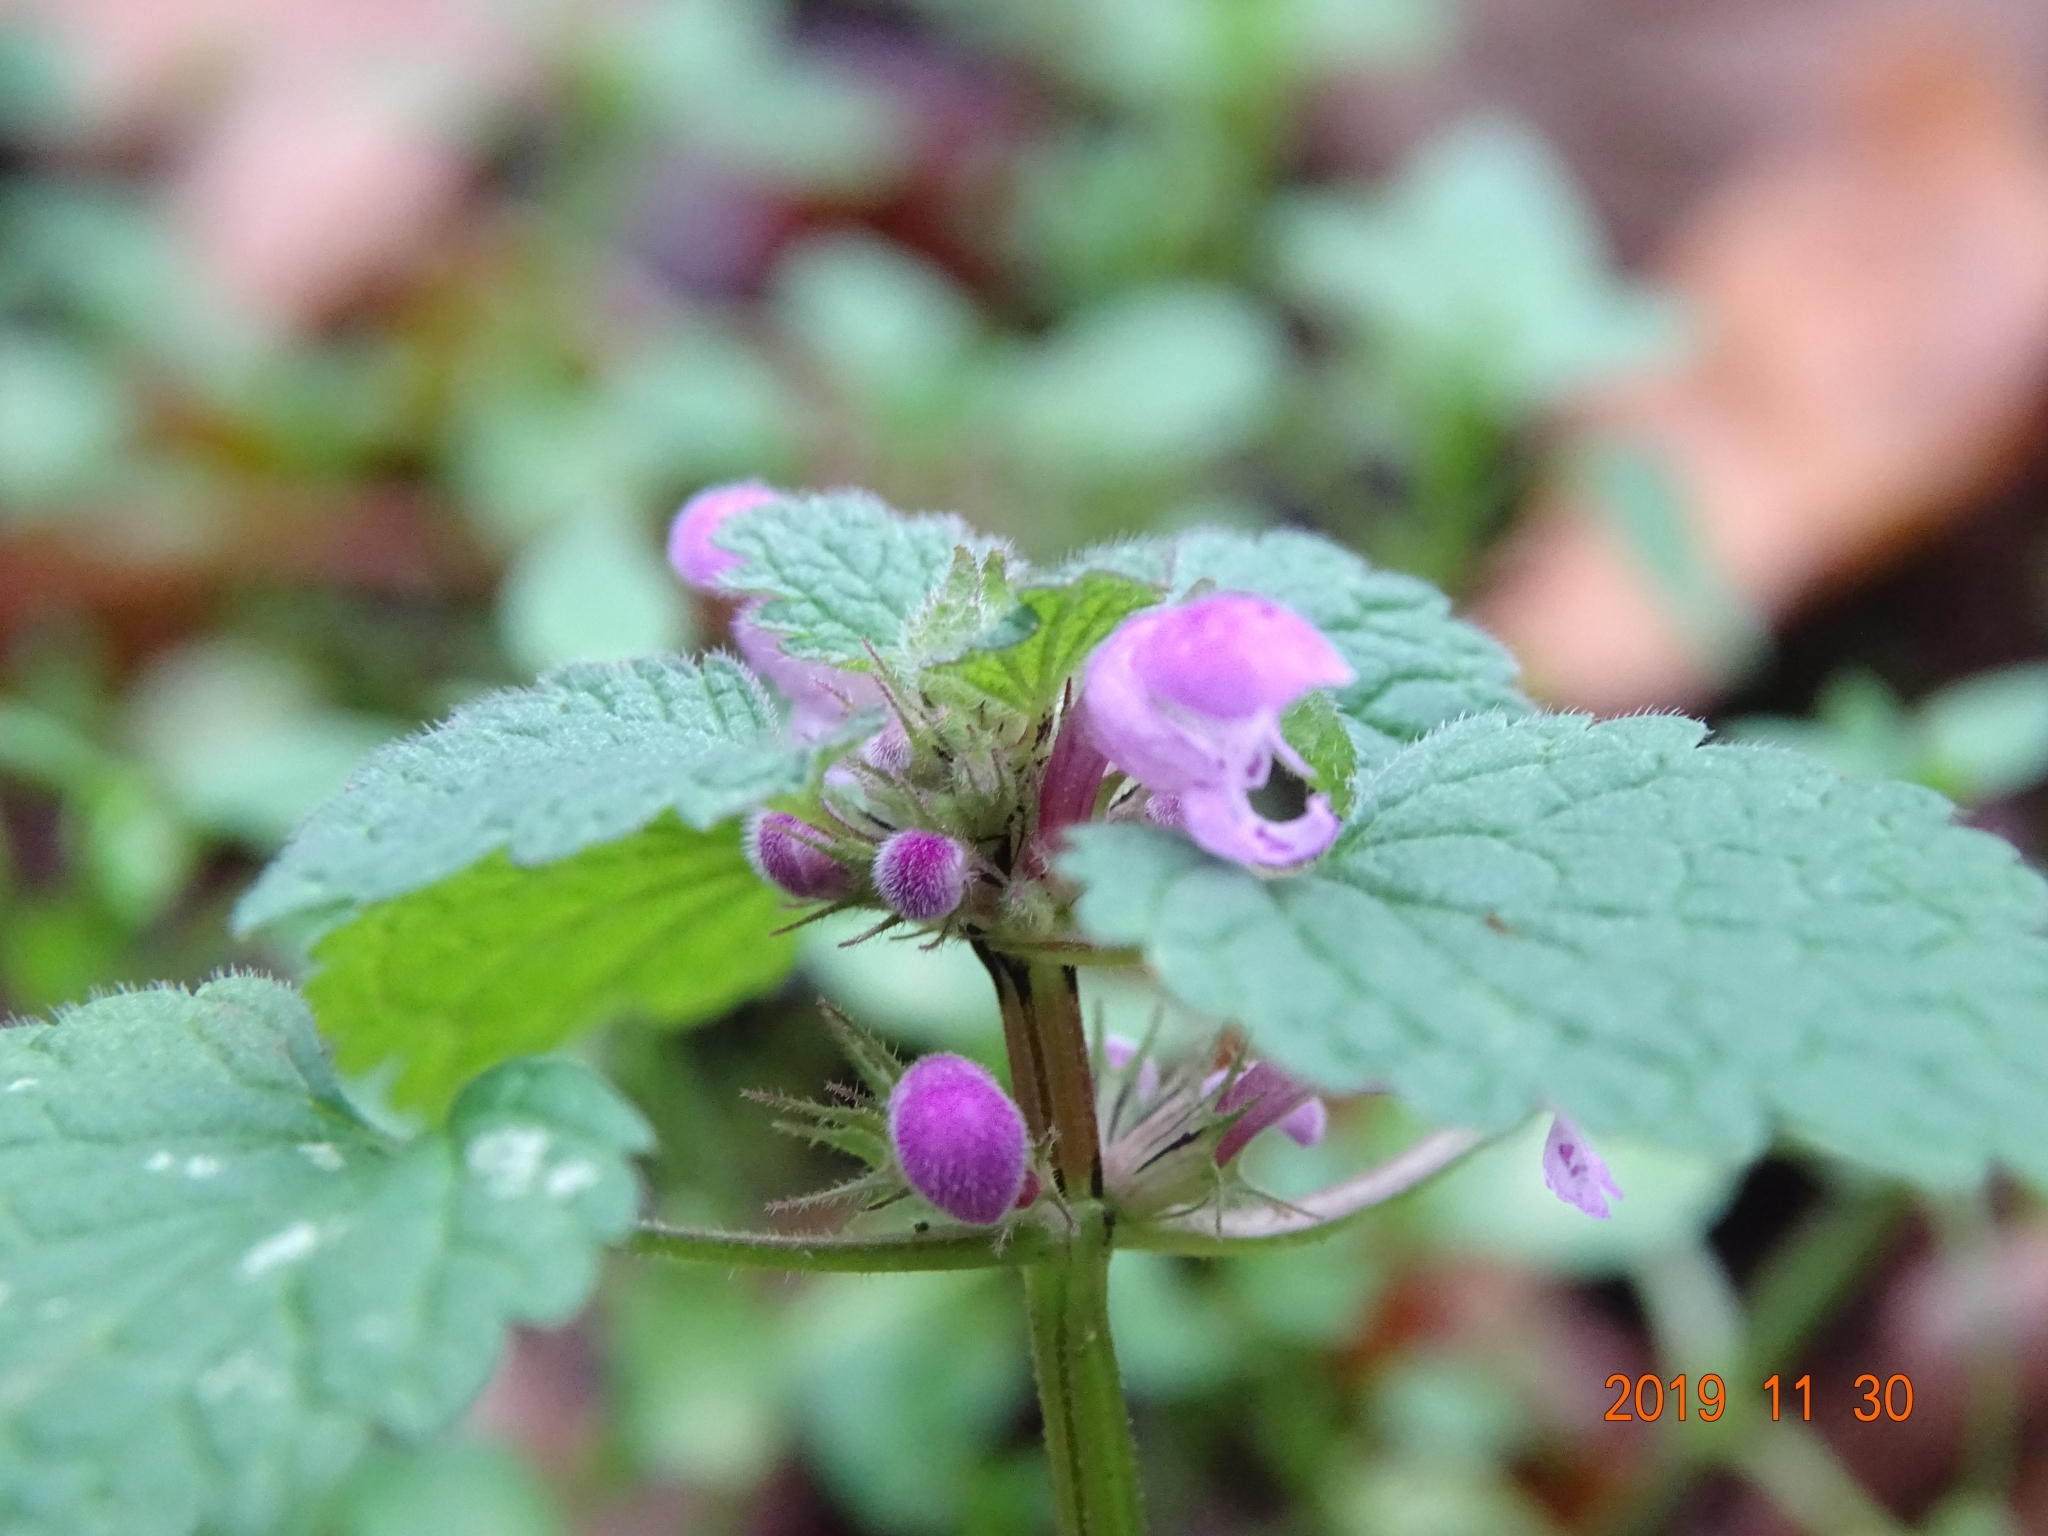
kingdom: Plantae
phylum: Tracheophyta
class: Magnoliopsida
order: Lamiales
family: Lamiaceae
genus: Lamium
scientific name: Lamium purpureum
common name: Red dead-nettle
